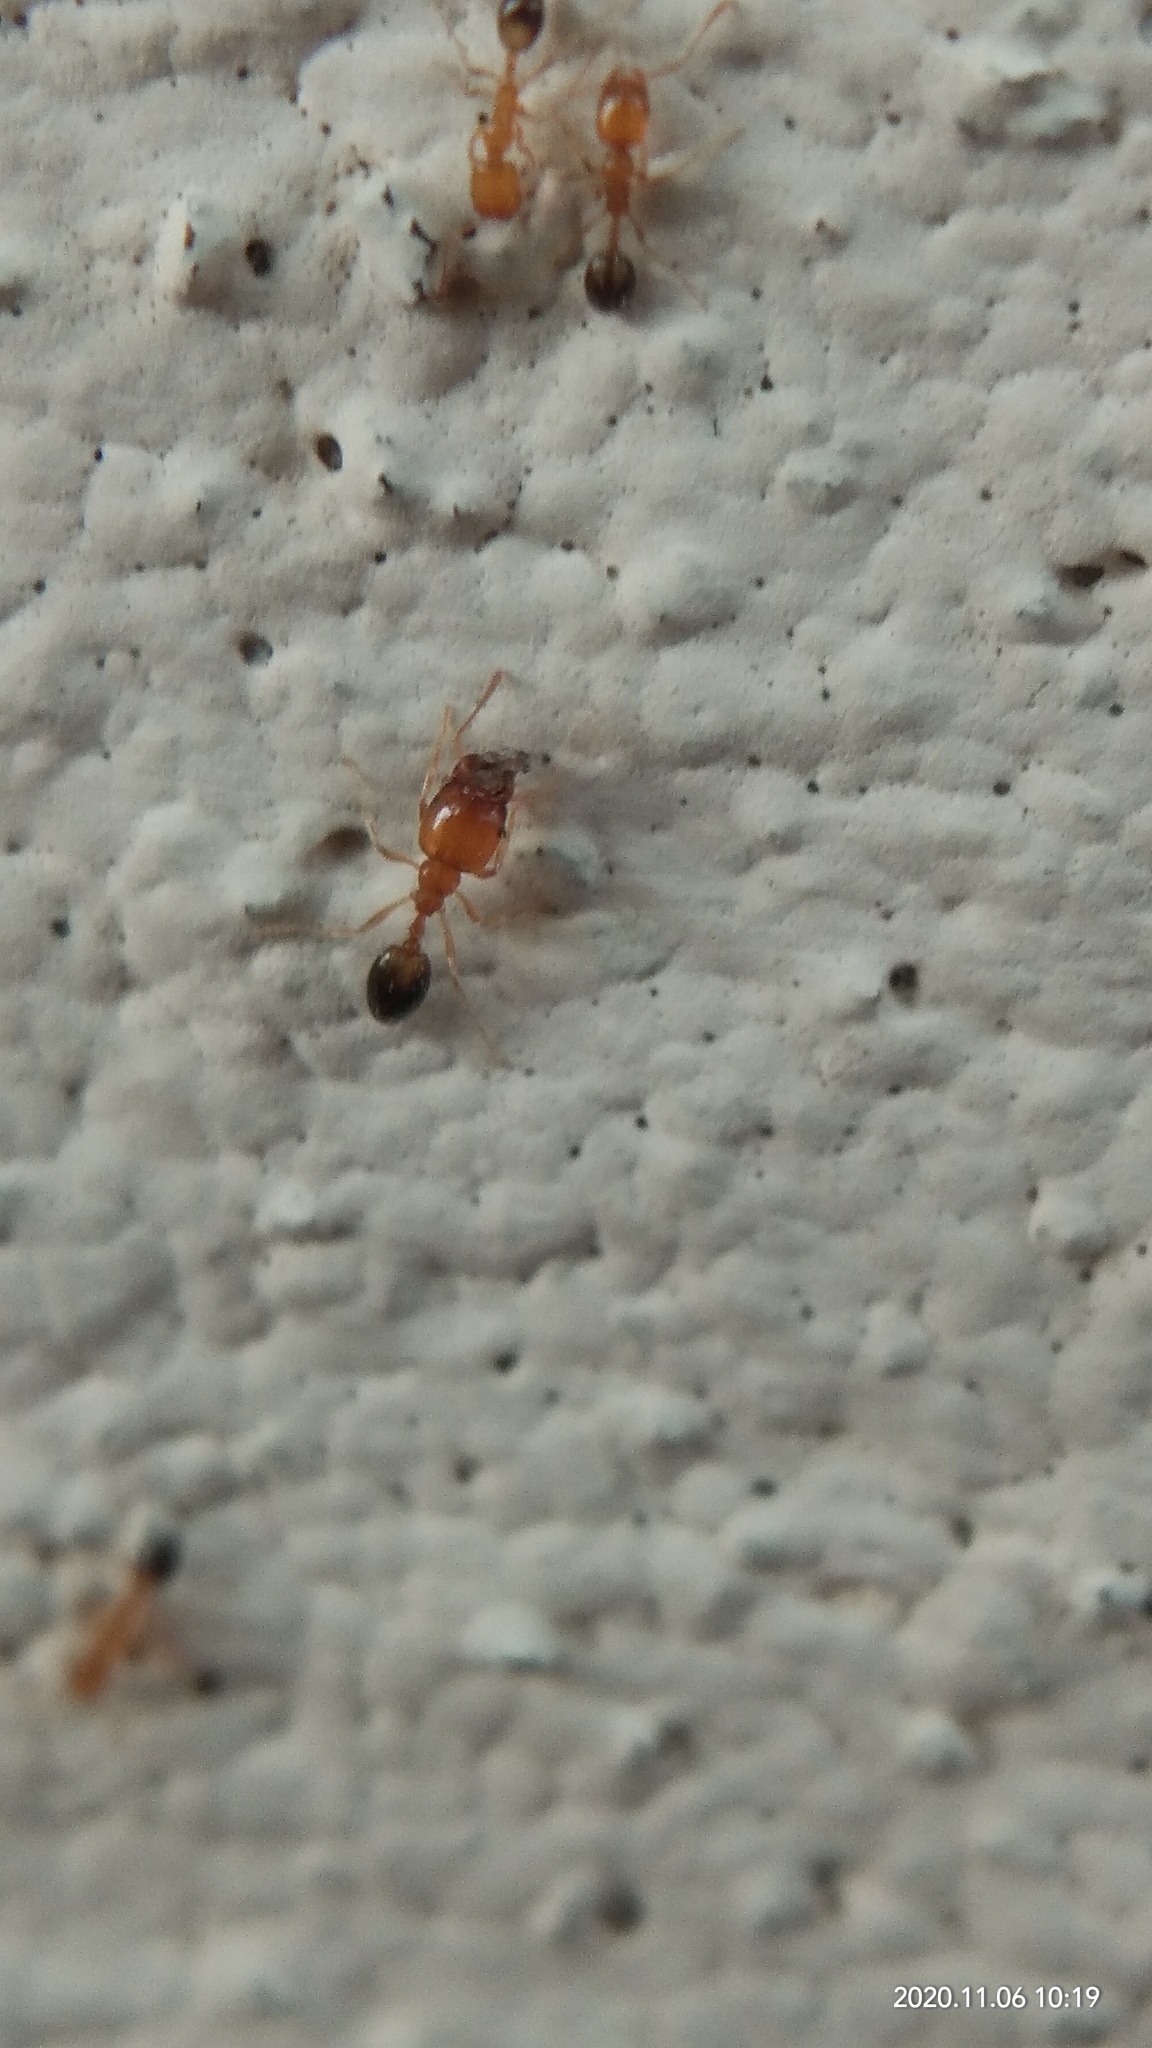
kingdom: Animalia
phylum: Arthropoda
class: Insecta
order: Hymenoptera
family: Formicidae
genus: Monomorium
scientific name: Monomorium destructor
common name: Destructive trailing ant
